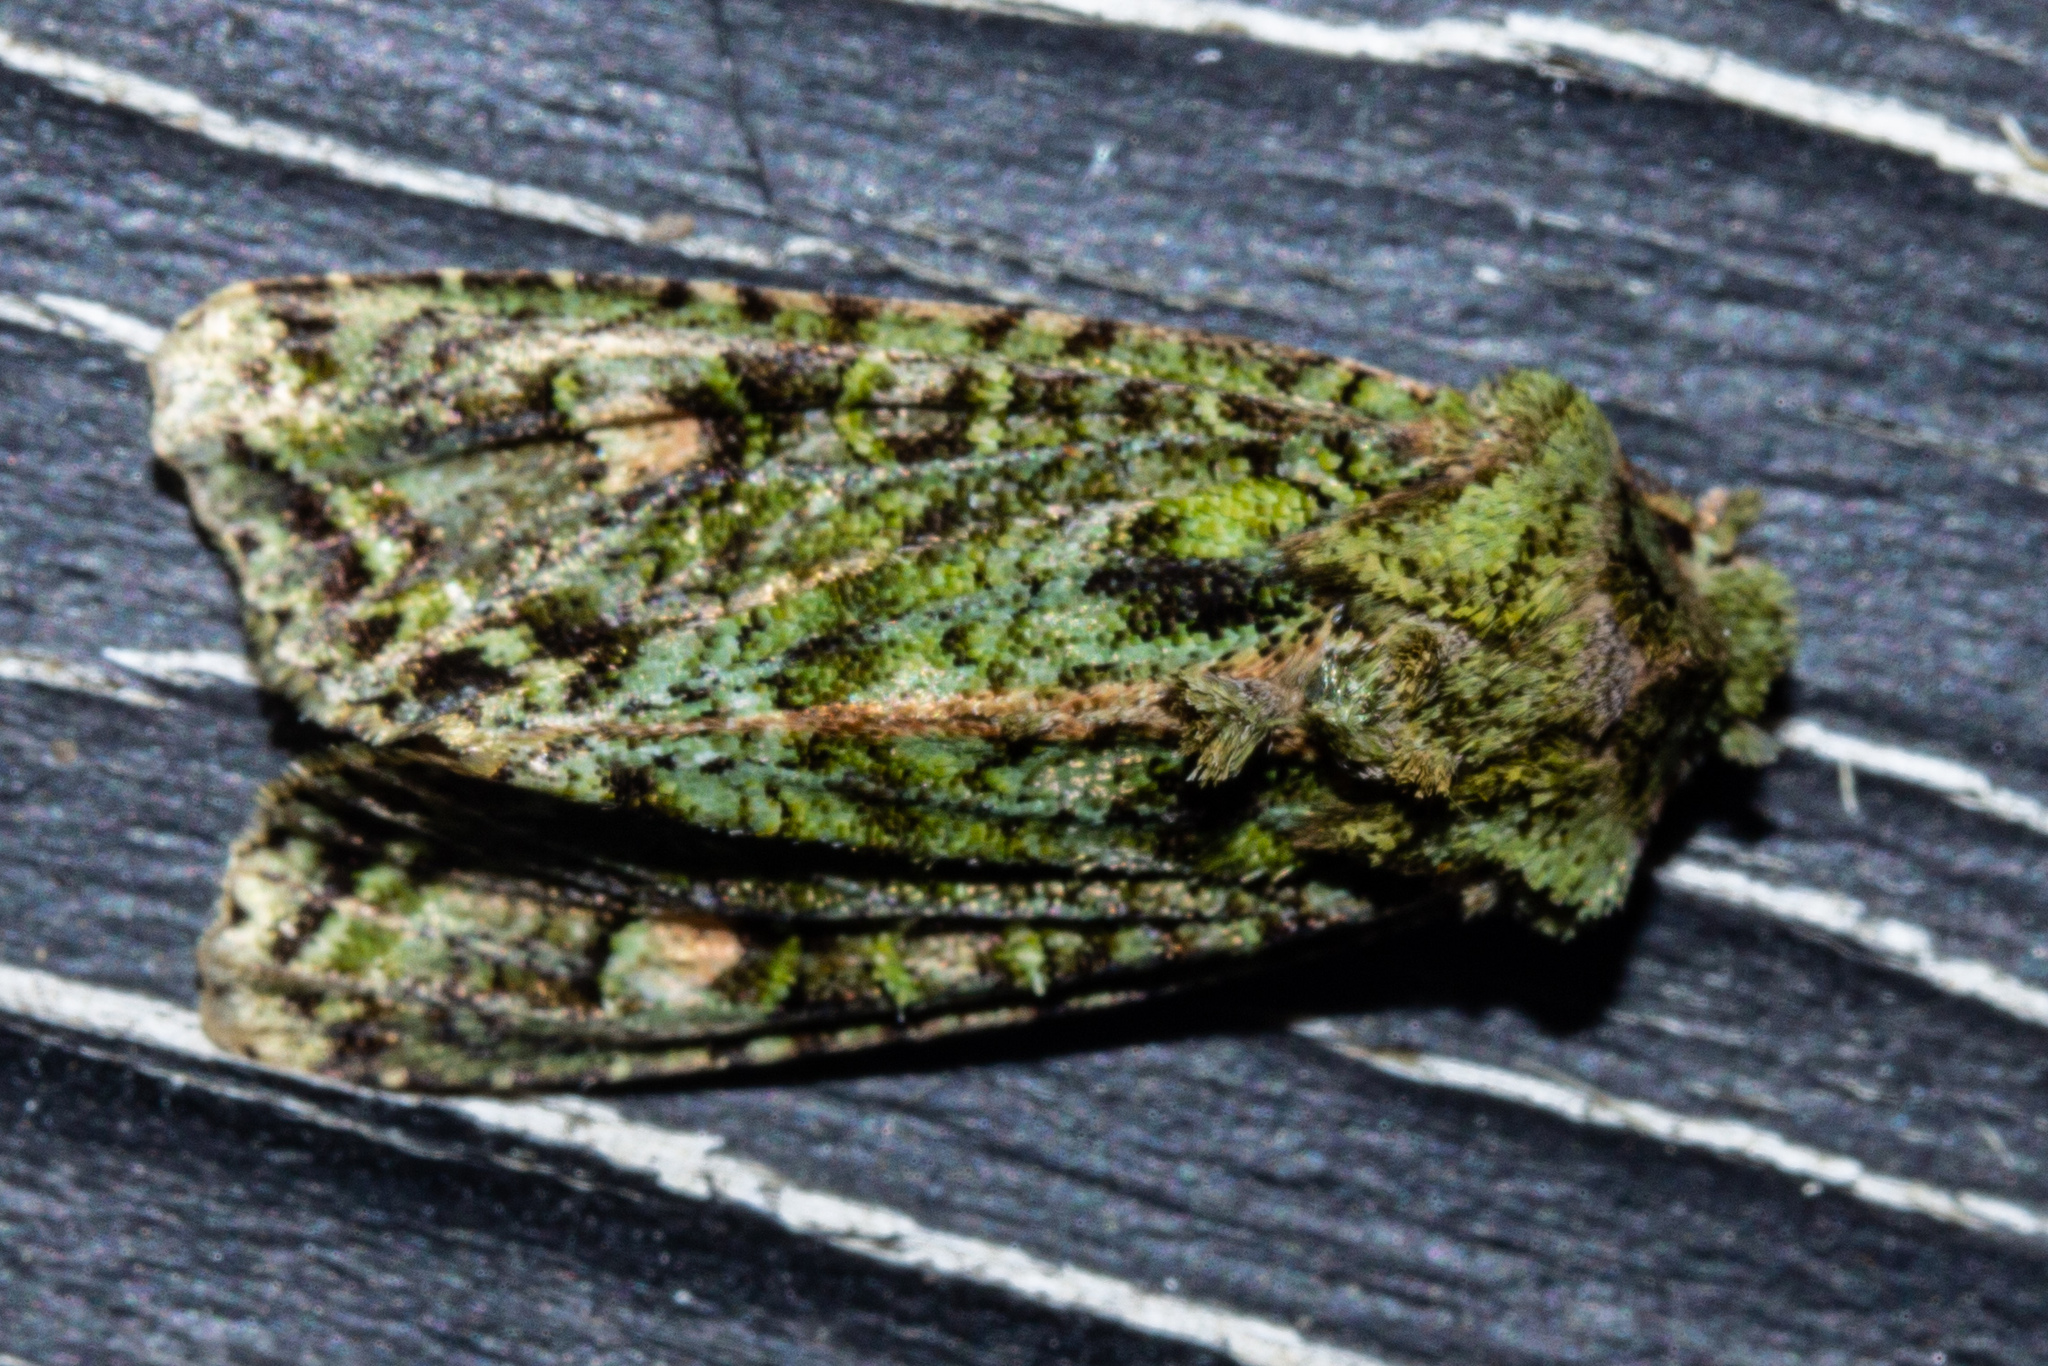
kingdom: Animalia
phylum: Arthropoda
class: Insecta
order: Lepidoptera
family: Noctuidae
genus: Ichneutica
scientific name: Ichneutica
